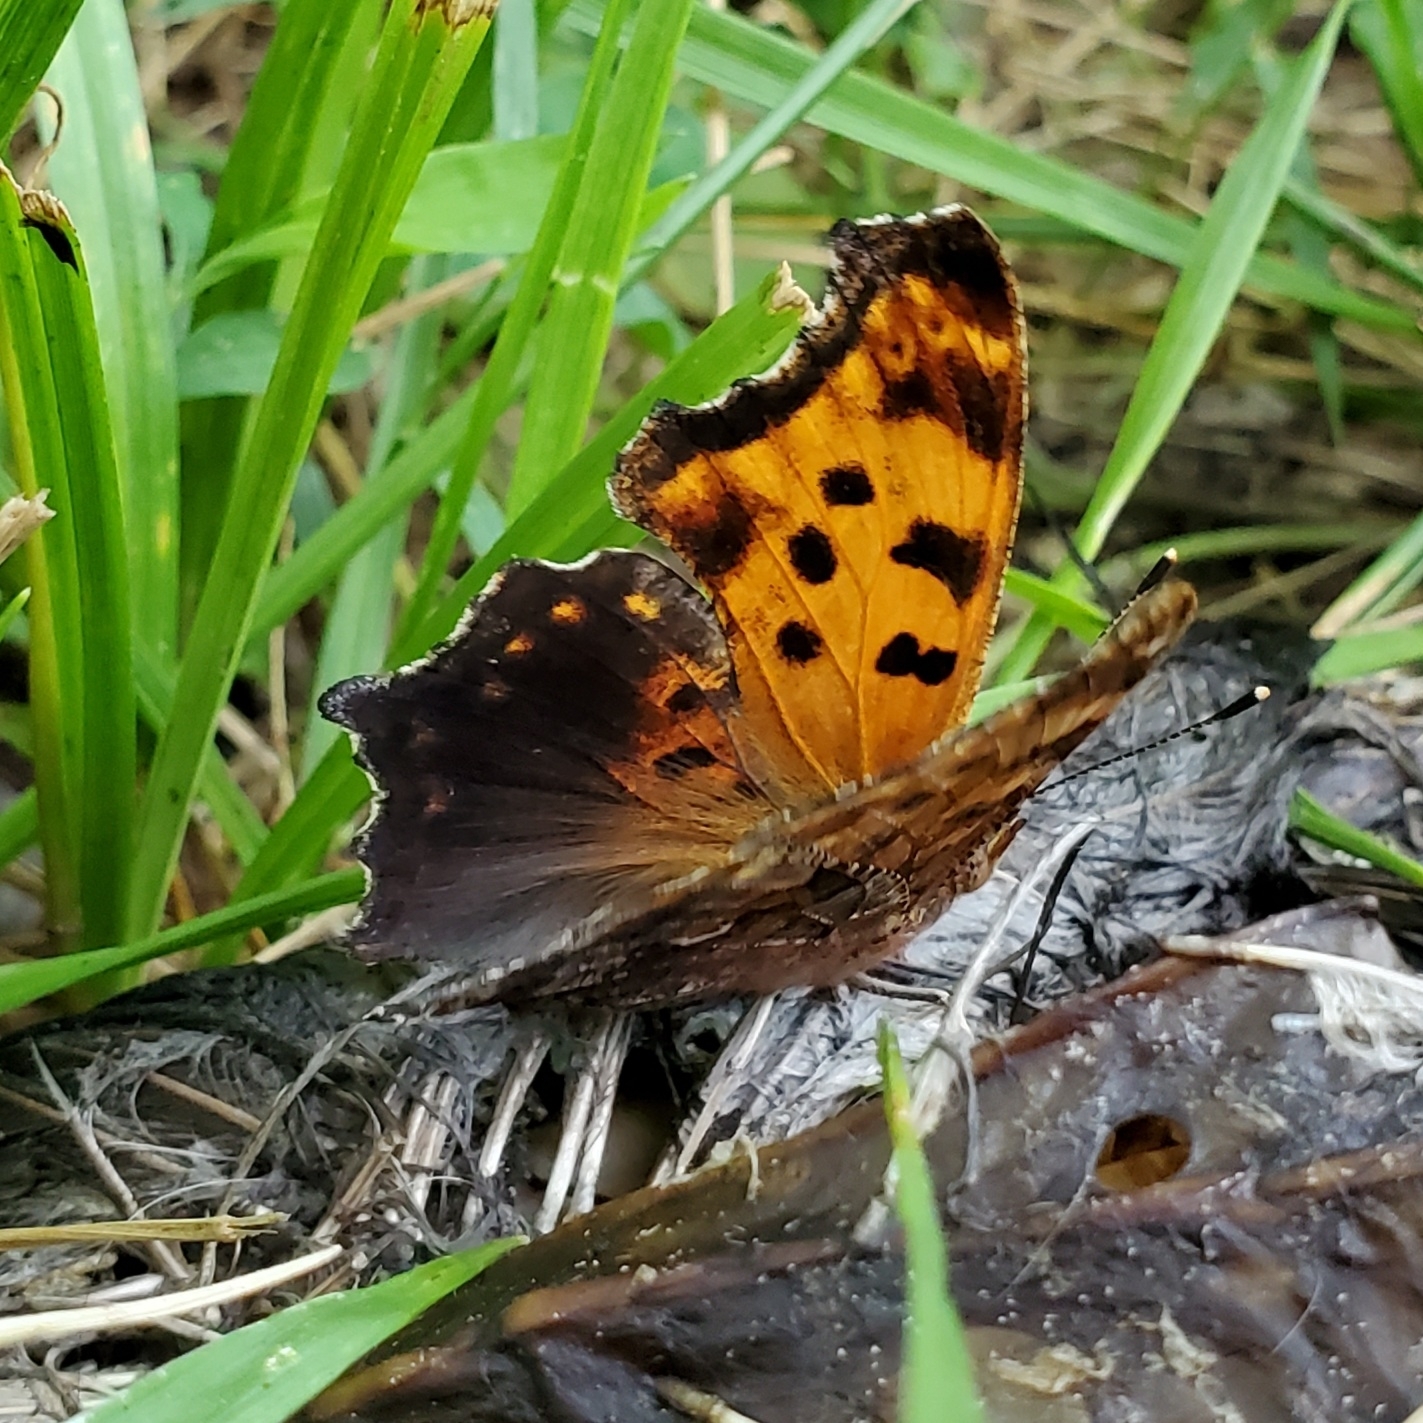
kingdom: Animalia
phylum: Arthropoda
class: Insecta
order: Lepidoptera
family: Nymphalidae
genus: Polygonia
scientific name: Polygonia comma
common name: Eastern comma
